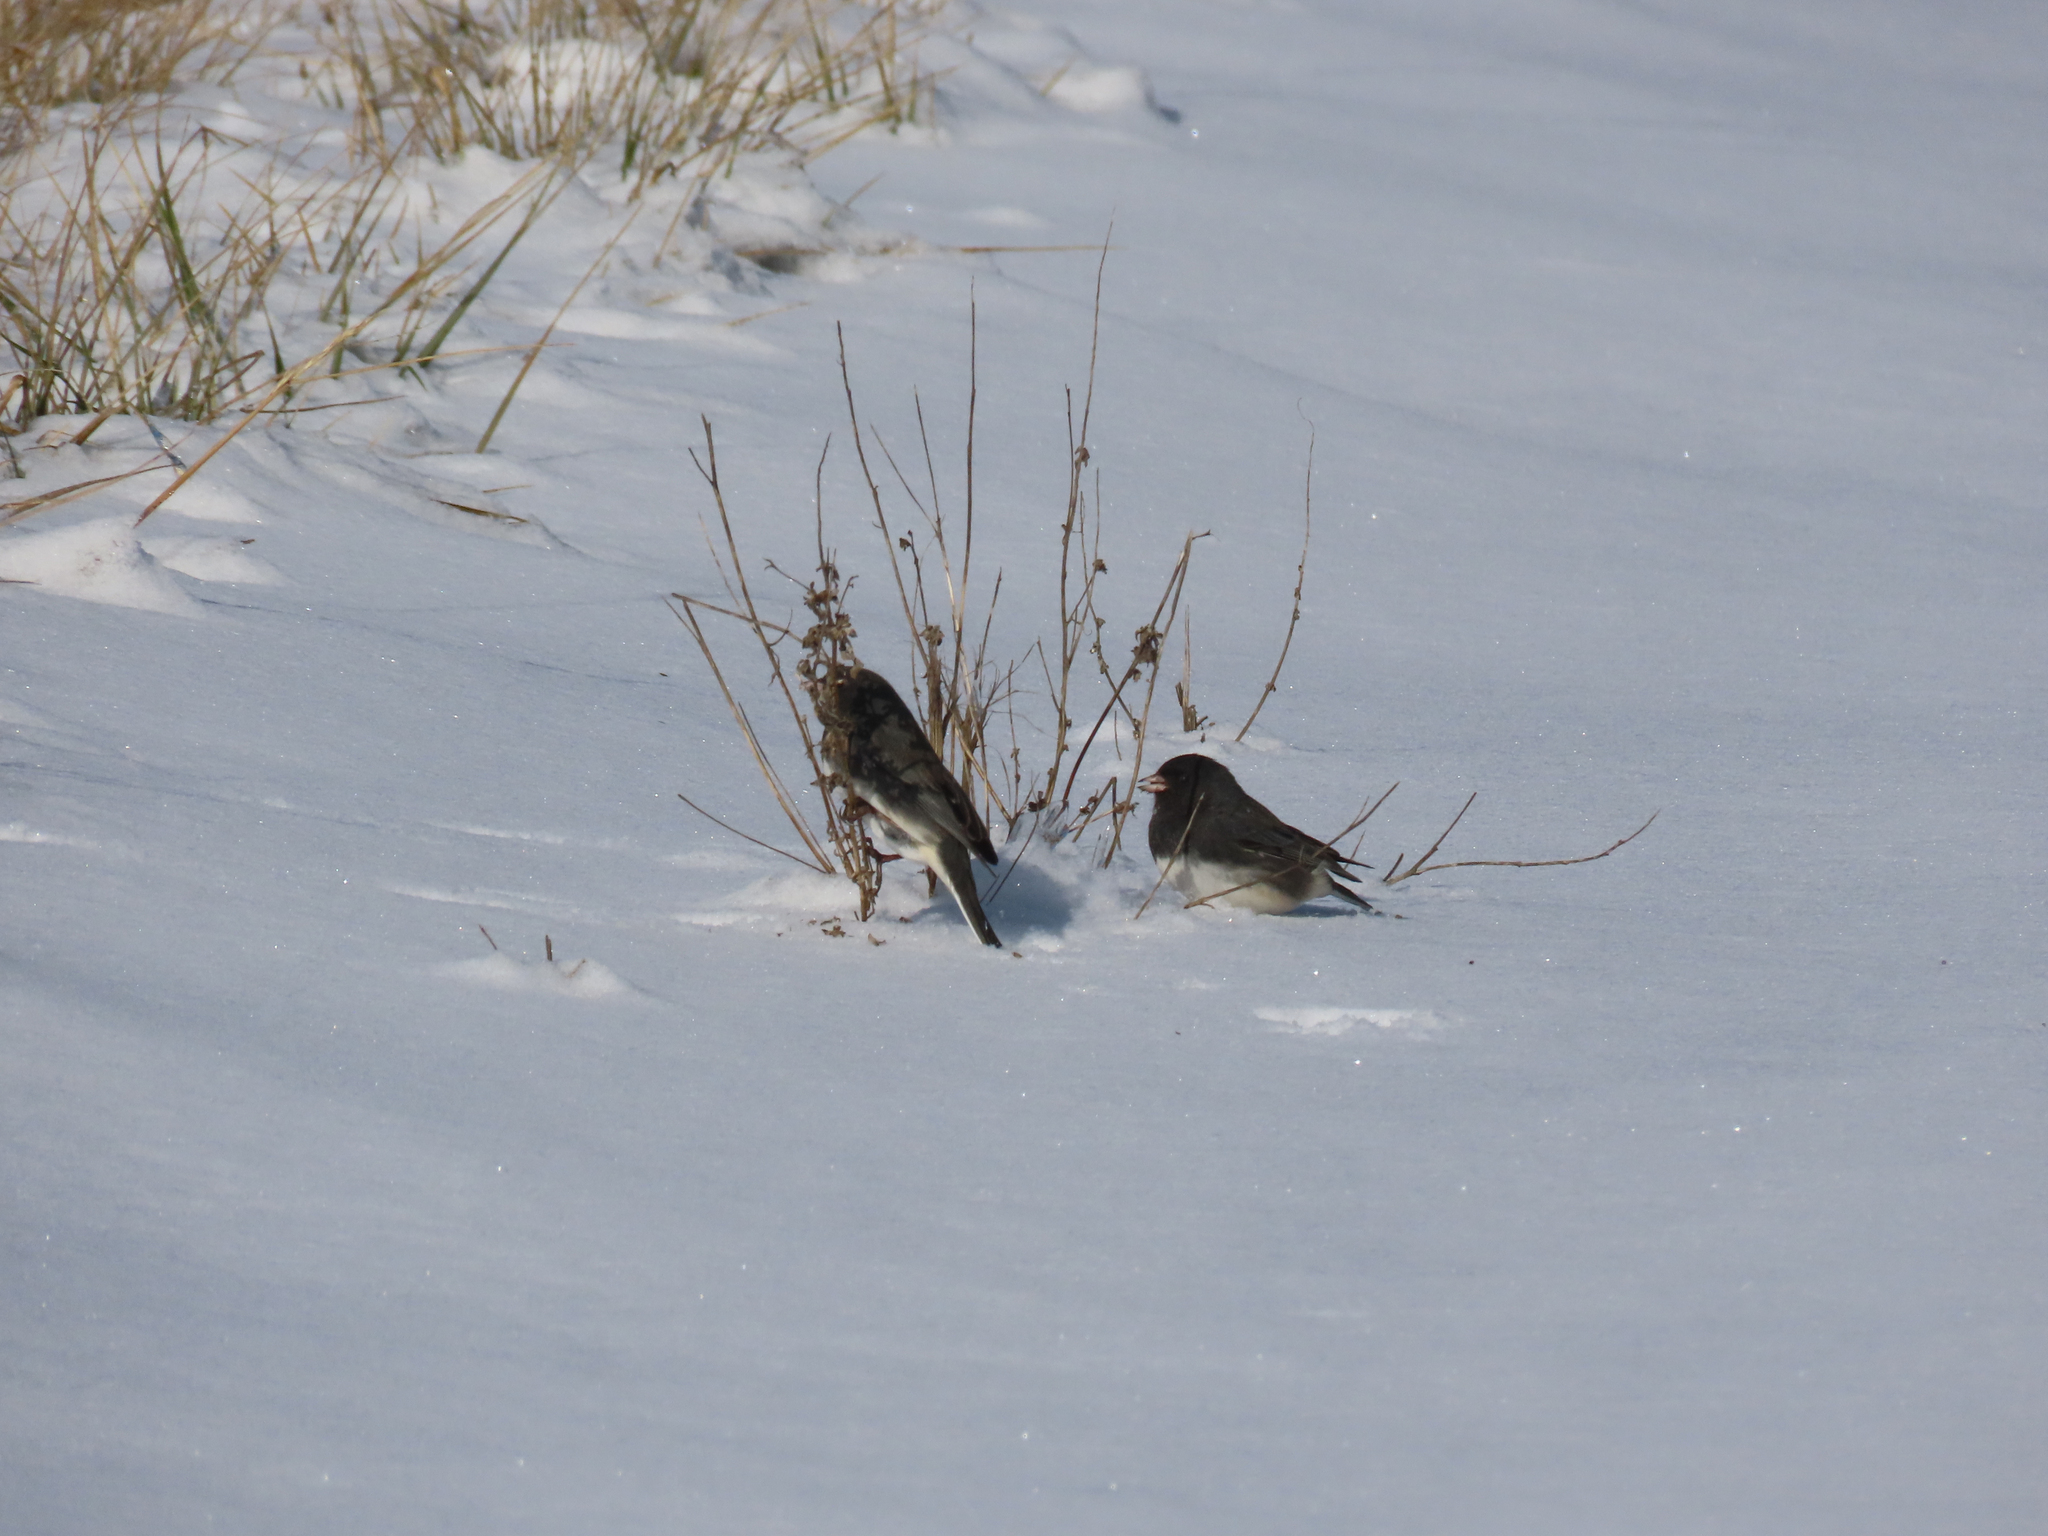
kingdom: Animalia
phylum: Chordata
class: Aves
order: Passeriformes
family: Passerellidae
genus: Junco
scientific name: Junco hyemalis
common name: Dark-eyed junco
